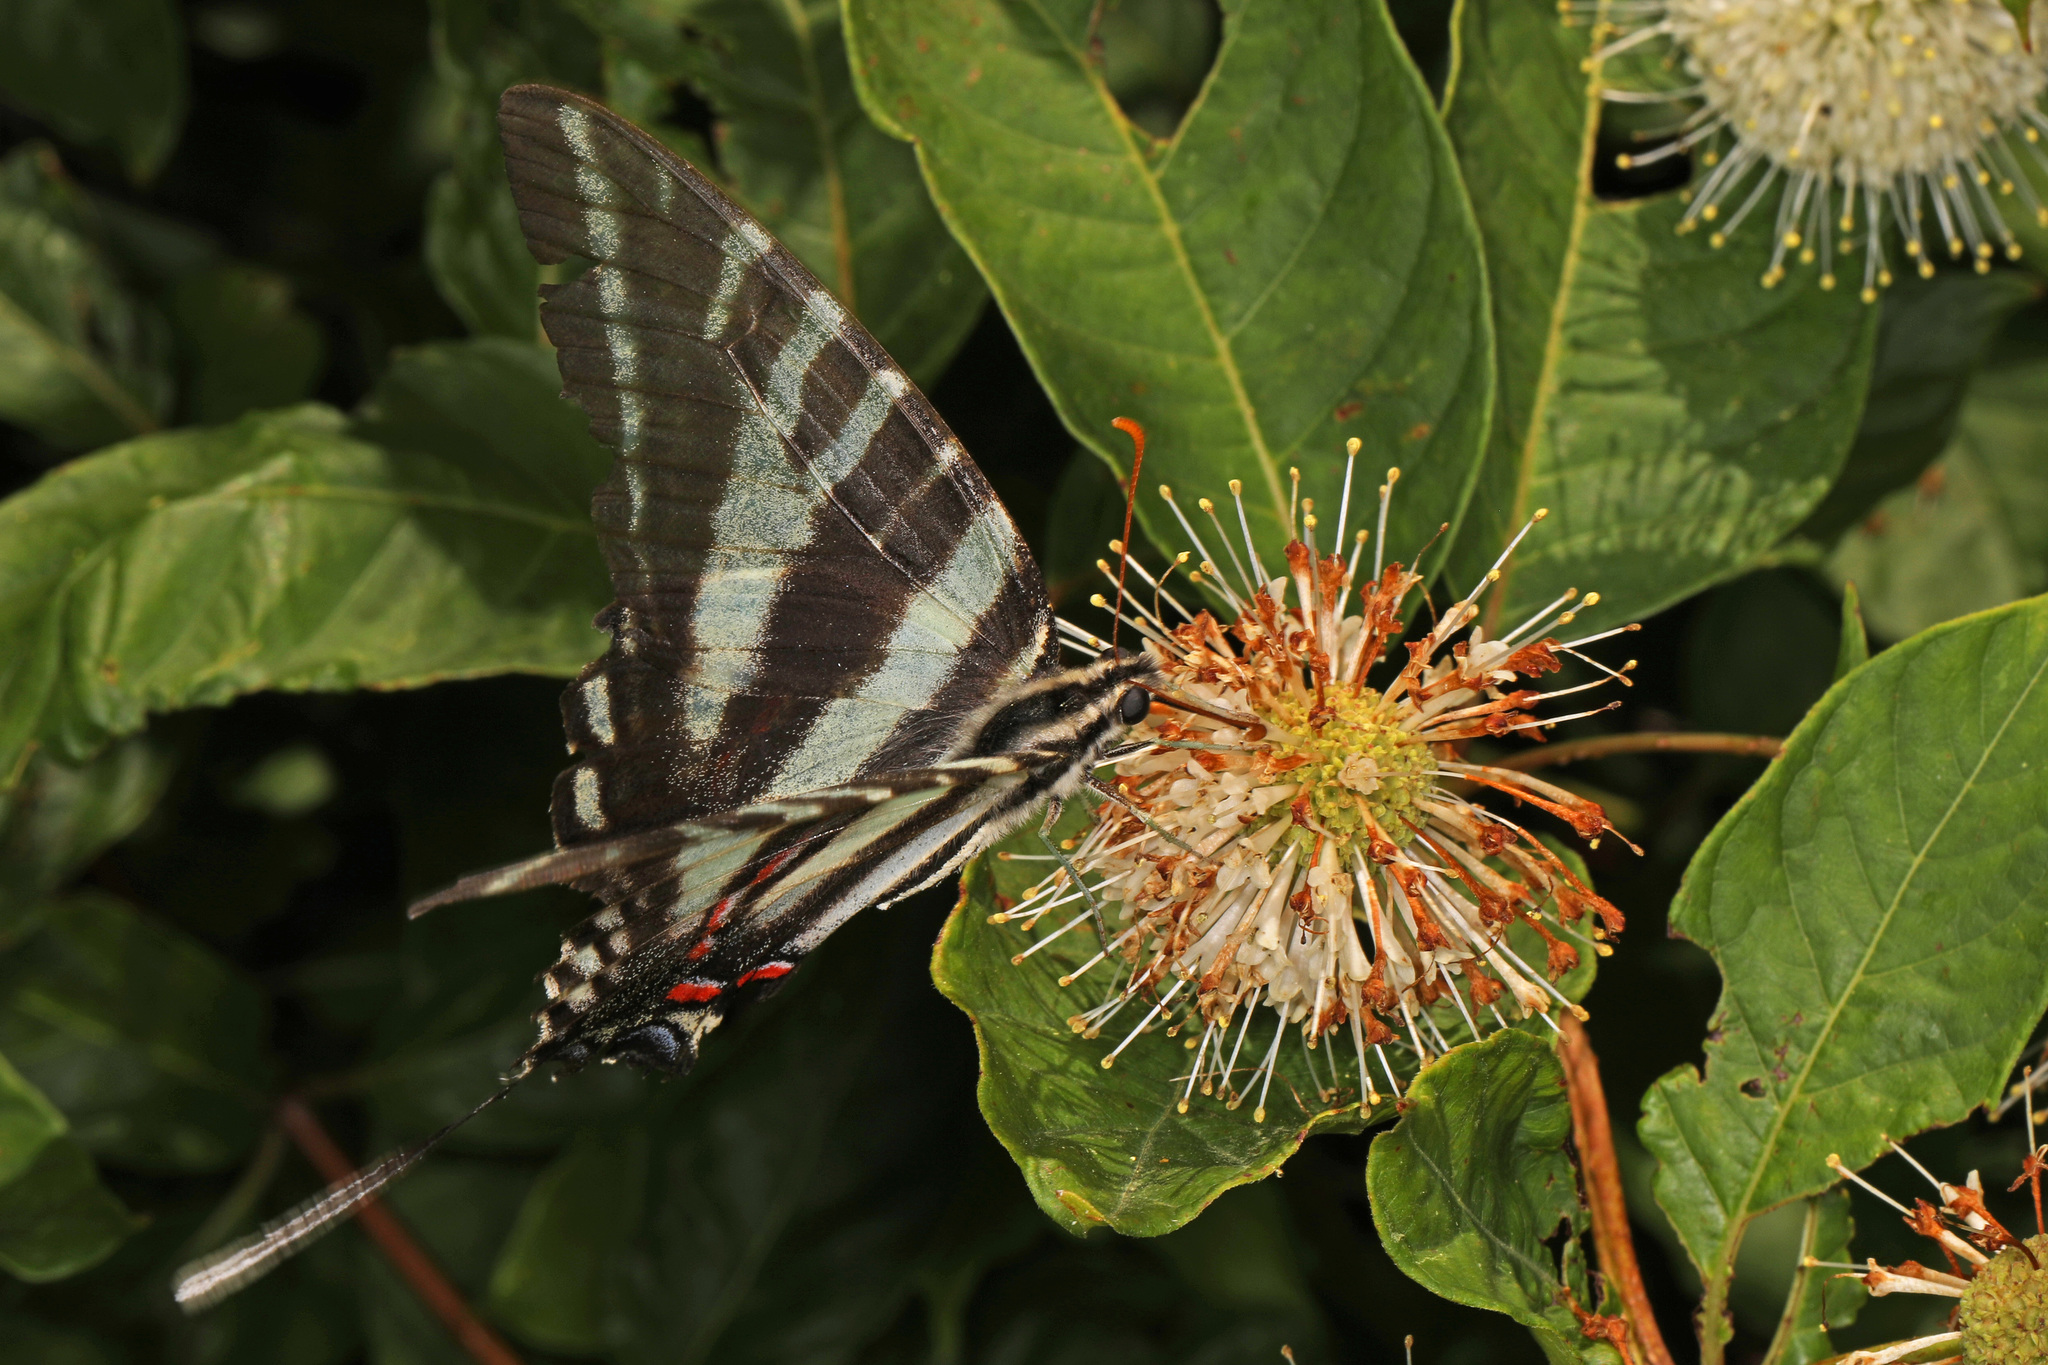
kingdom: Animalia
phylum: Arthropoda
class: Insecta
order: Lepidoptera
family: Papilionidae
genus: Protographium
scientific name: Protographium marcellus
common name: Zebra swallowtail
